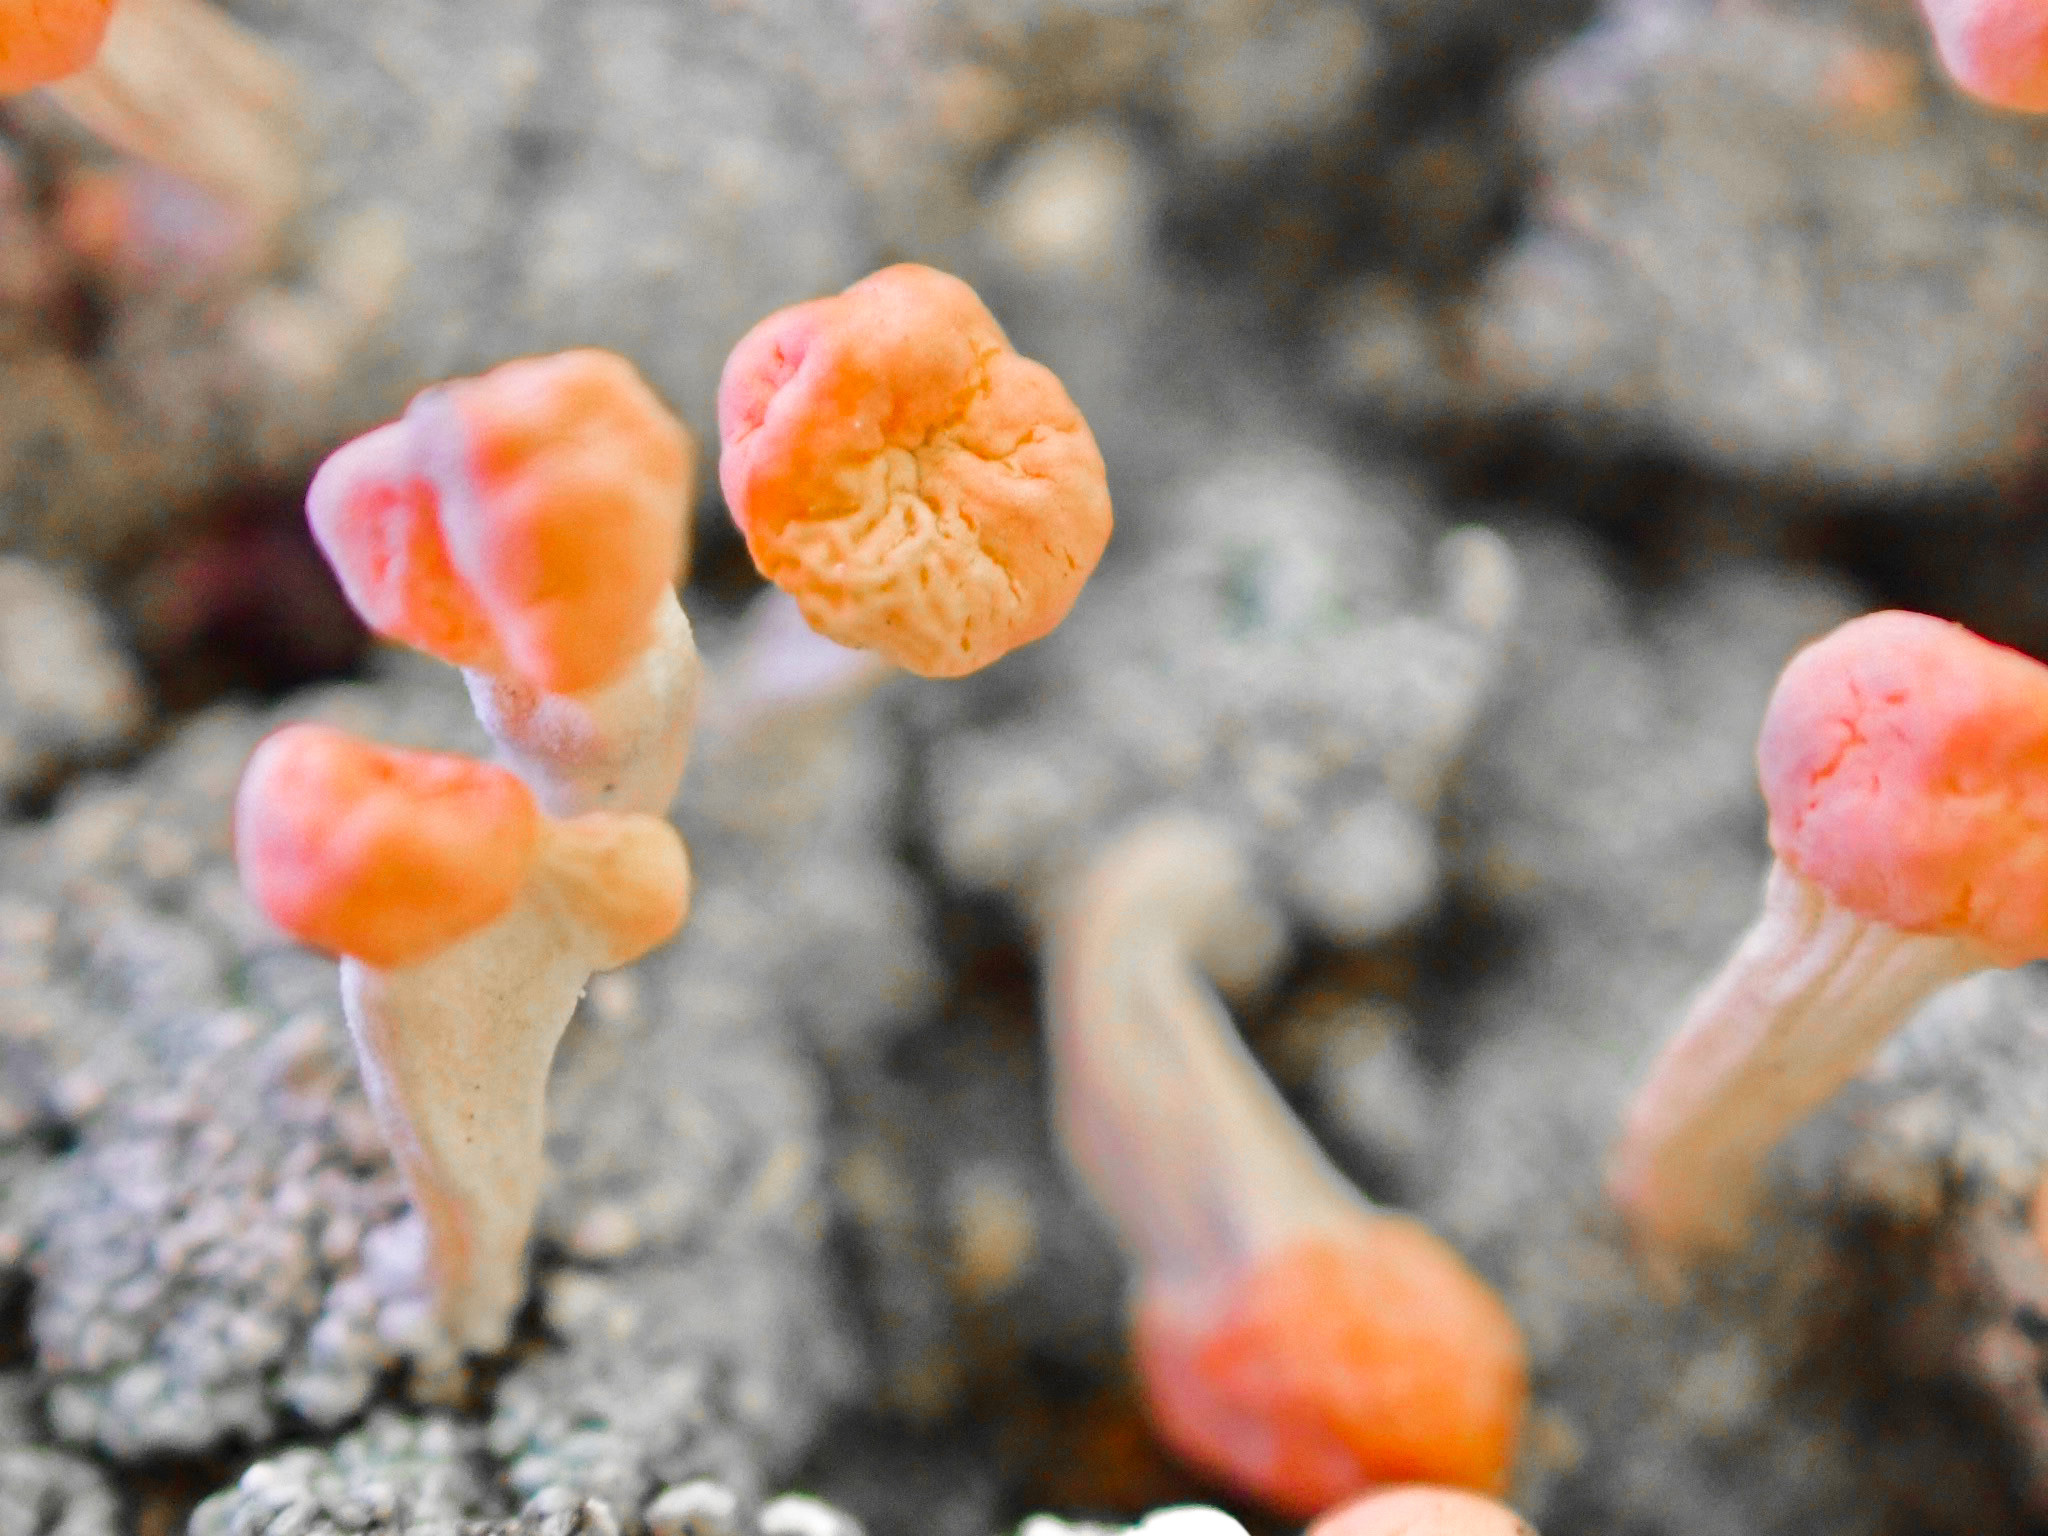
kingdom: Fungi
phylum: Ascomycota
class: Lecanoromycetes
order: Pertusariales
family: Icmadophilaceae
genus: Dibaeis
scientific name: Dibaeis baeomyces
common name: Pink earth lichen
